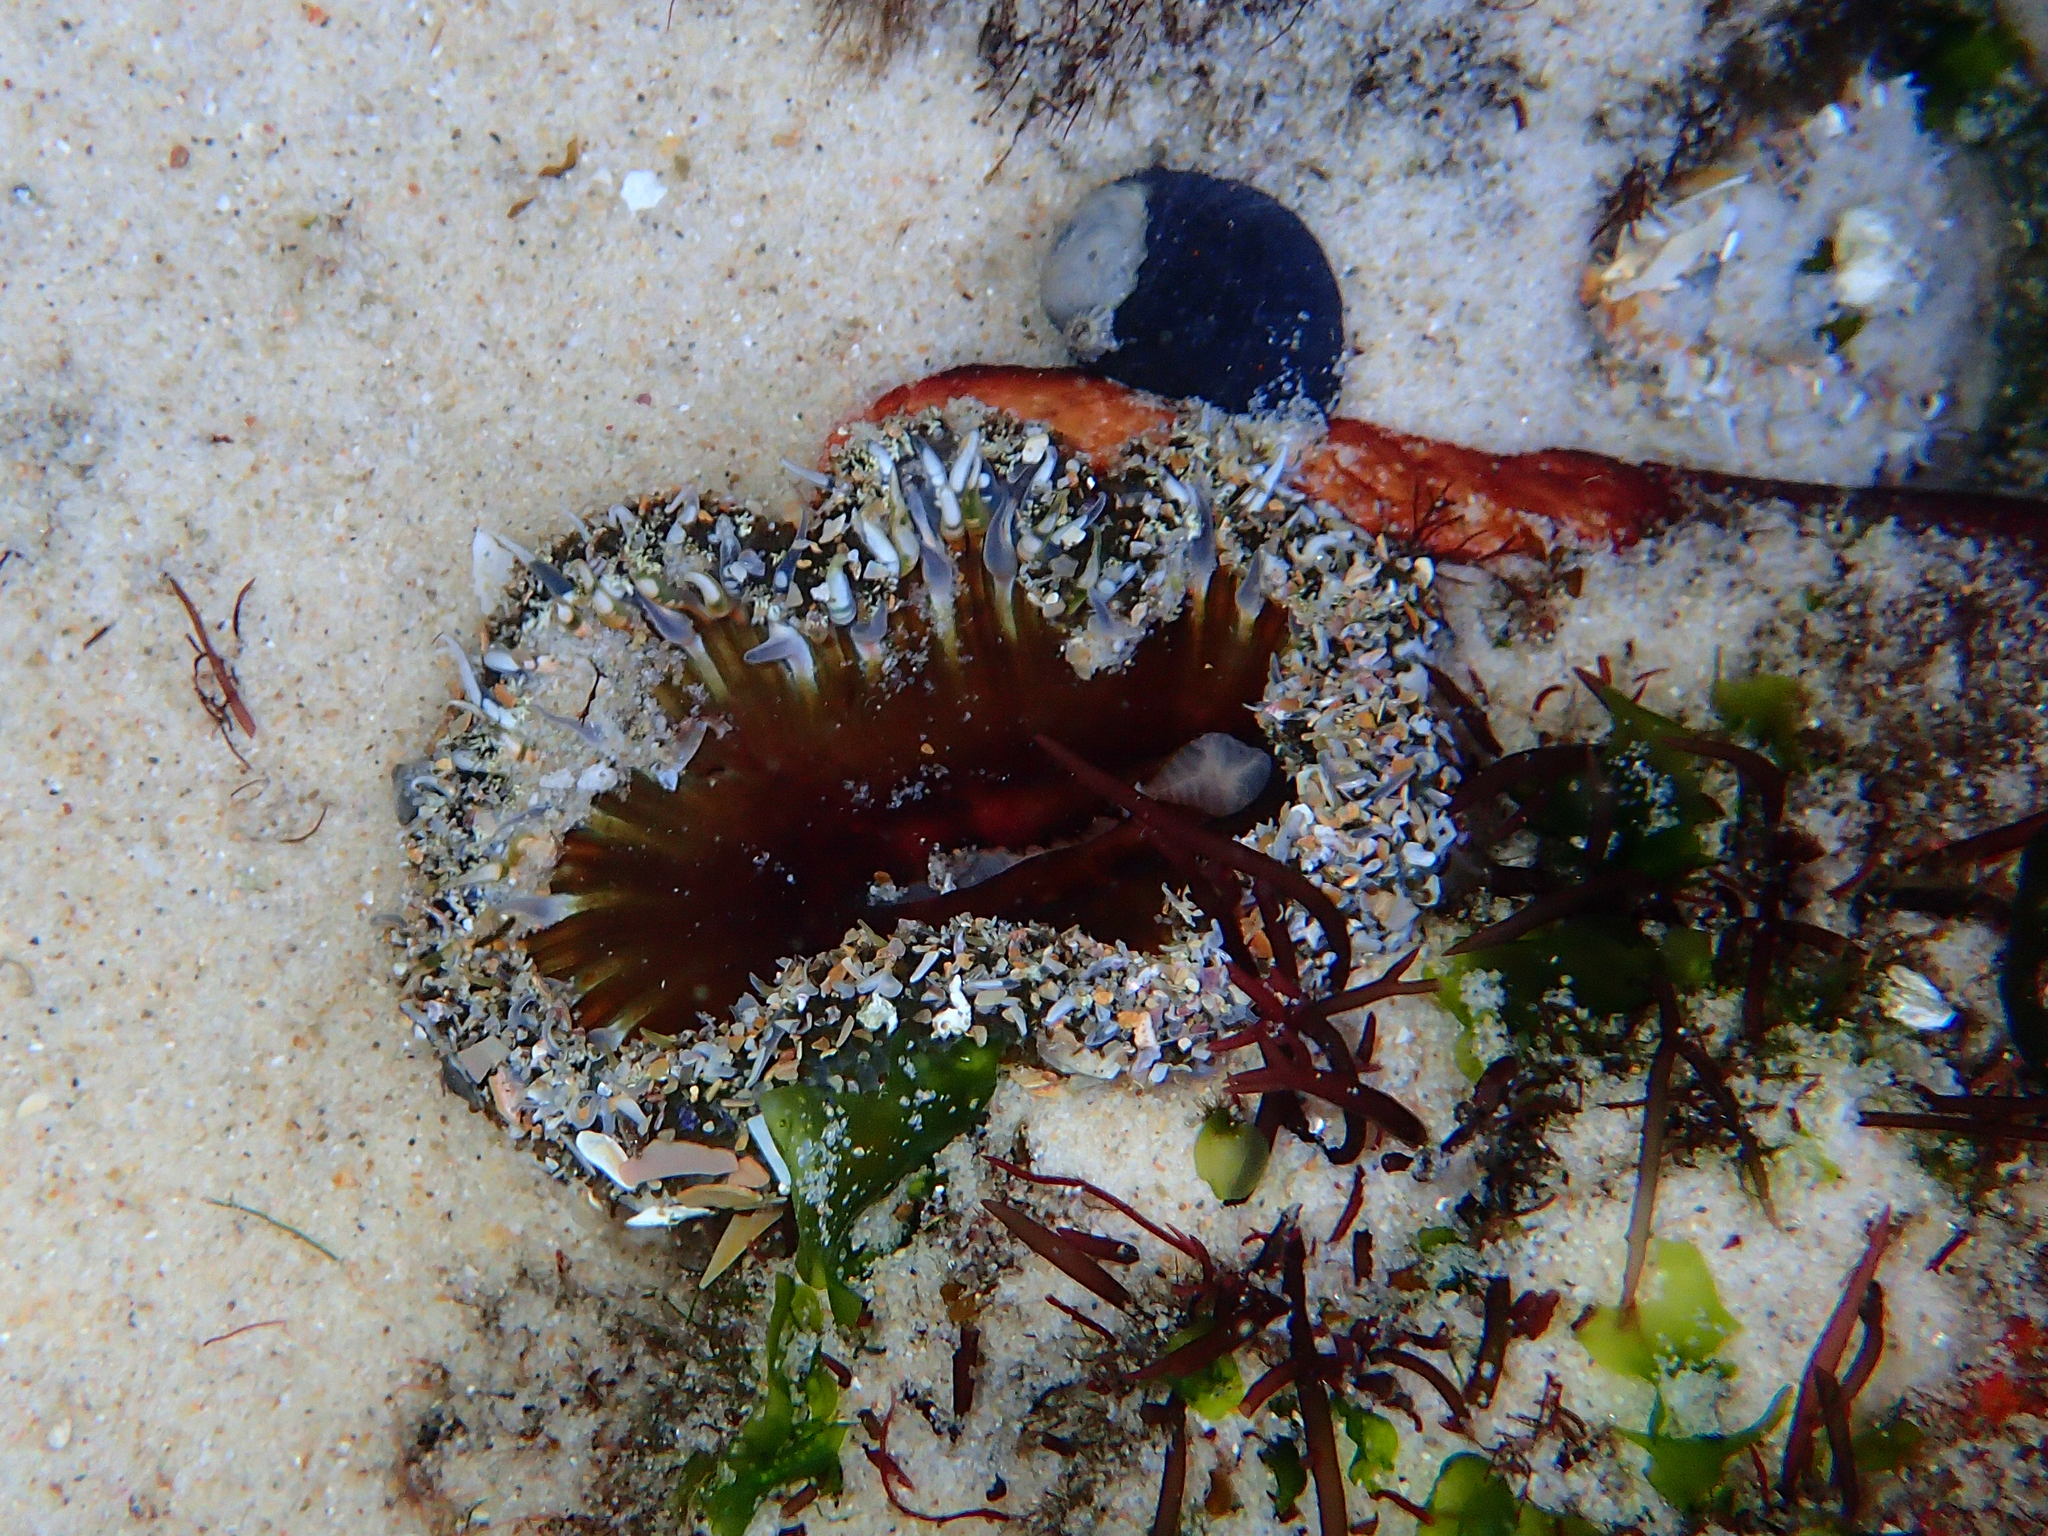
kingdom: Animalia
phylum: Cnidaria
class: Anthozoa
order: Actiniaria
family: Actiniidae
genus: Oulactis
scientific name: Oulactis muscosa
